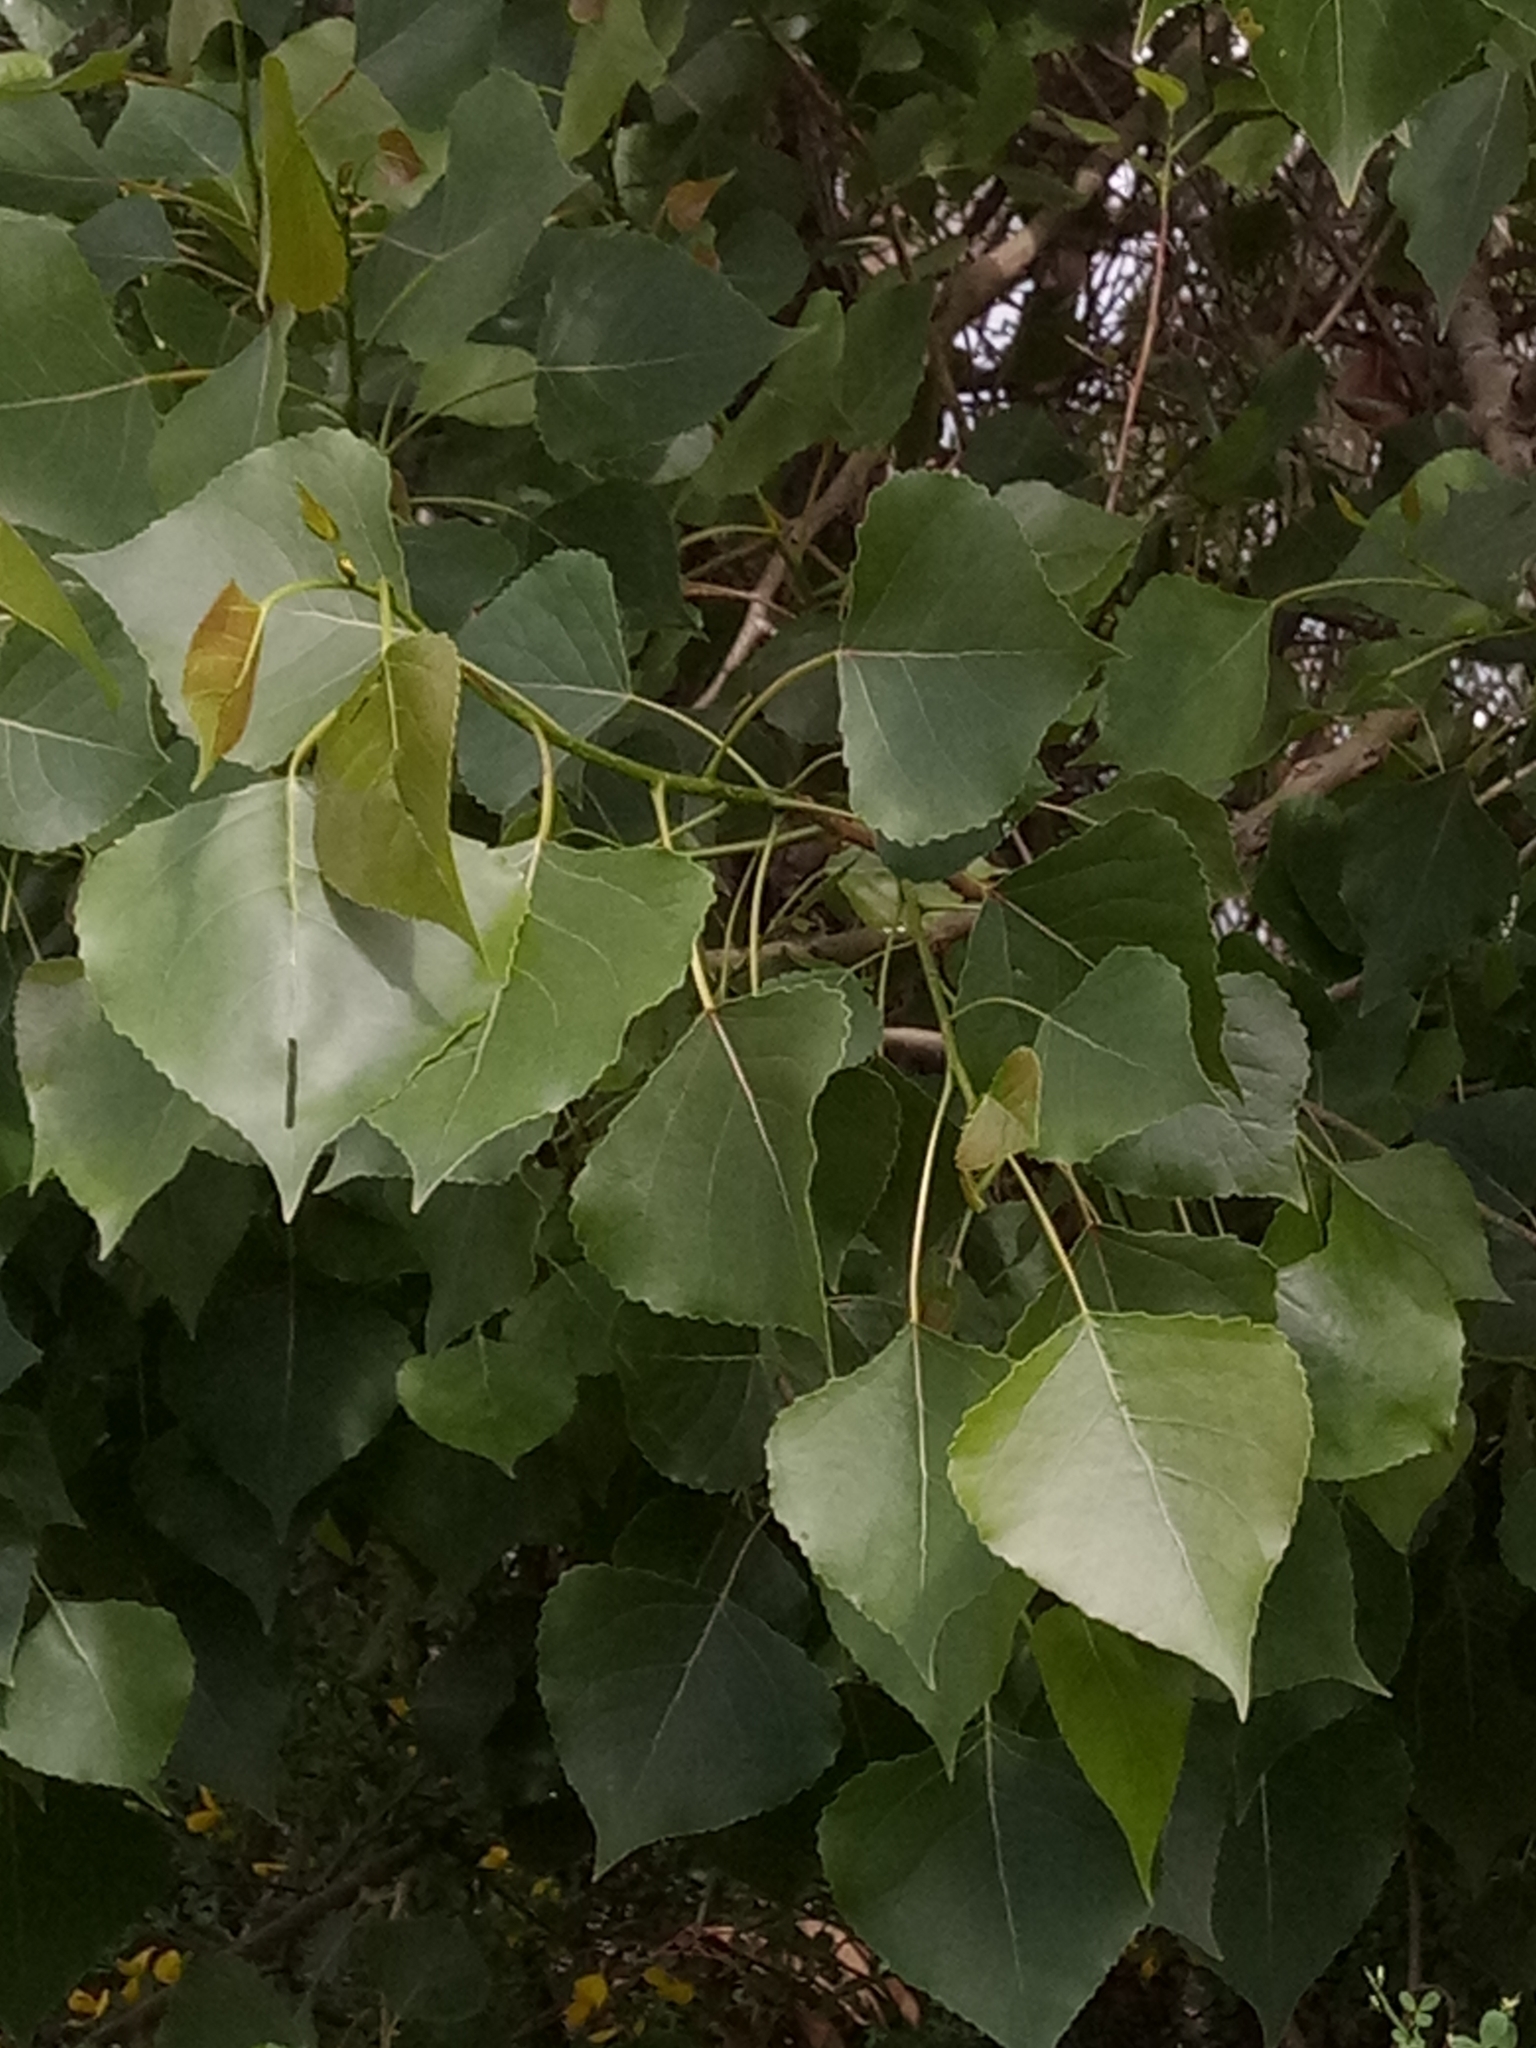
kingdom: Plantae
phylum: Tracheophyta
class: Magnoliopsida
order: Malpighiales
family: Salicaceae
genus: Populus
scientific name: Populus nigra
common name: Black poplar
